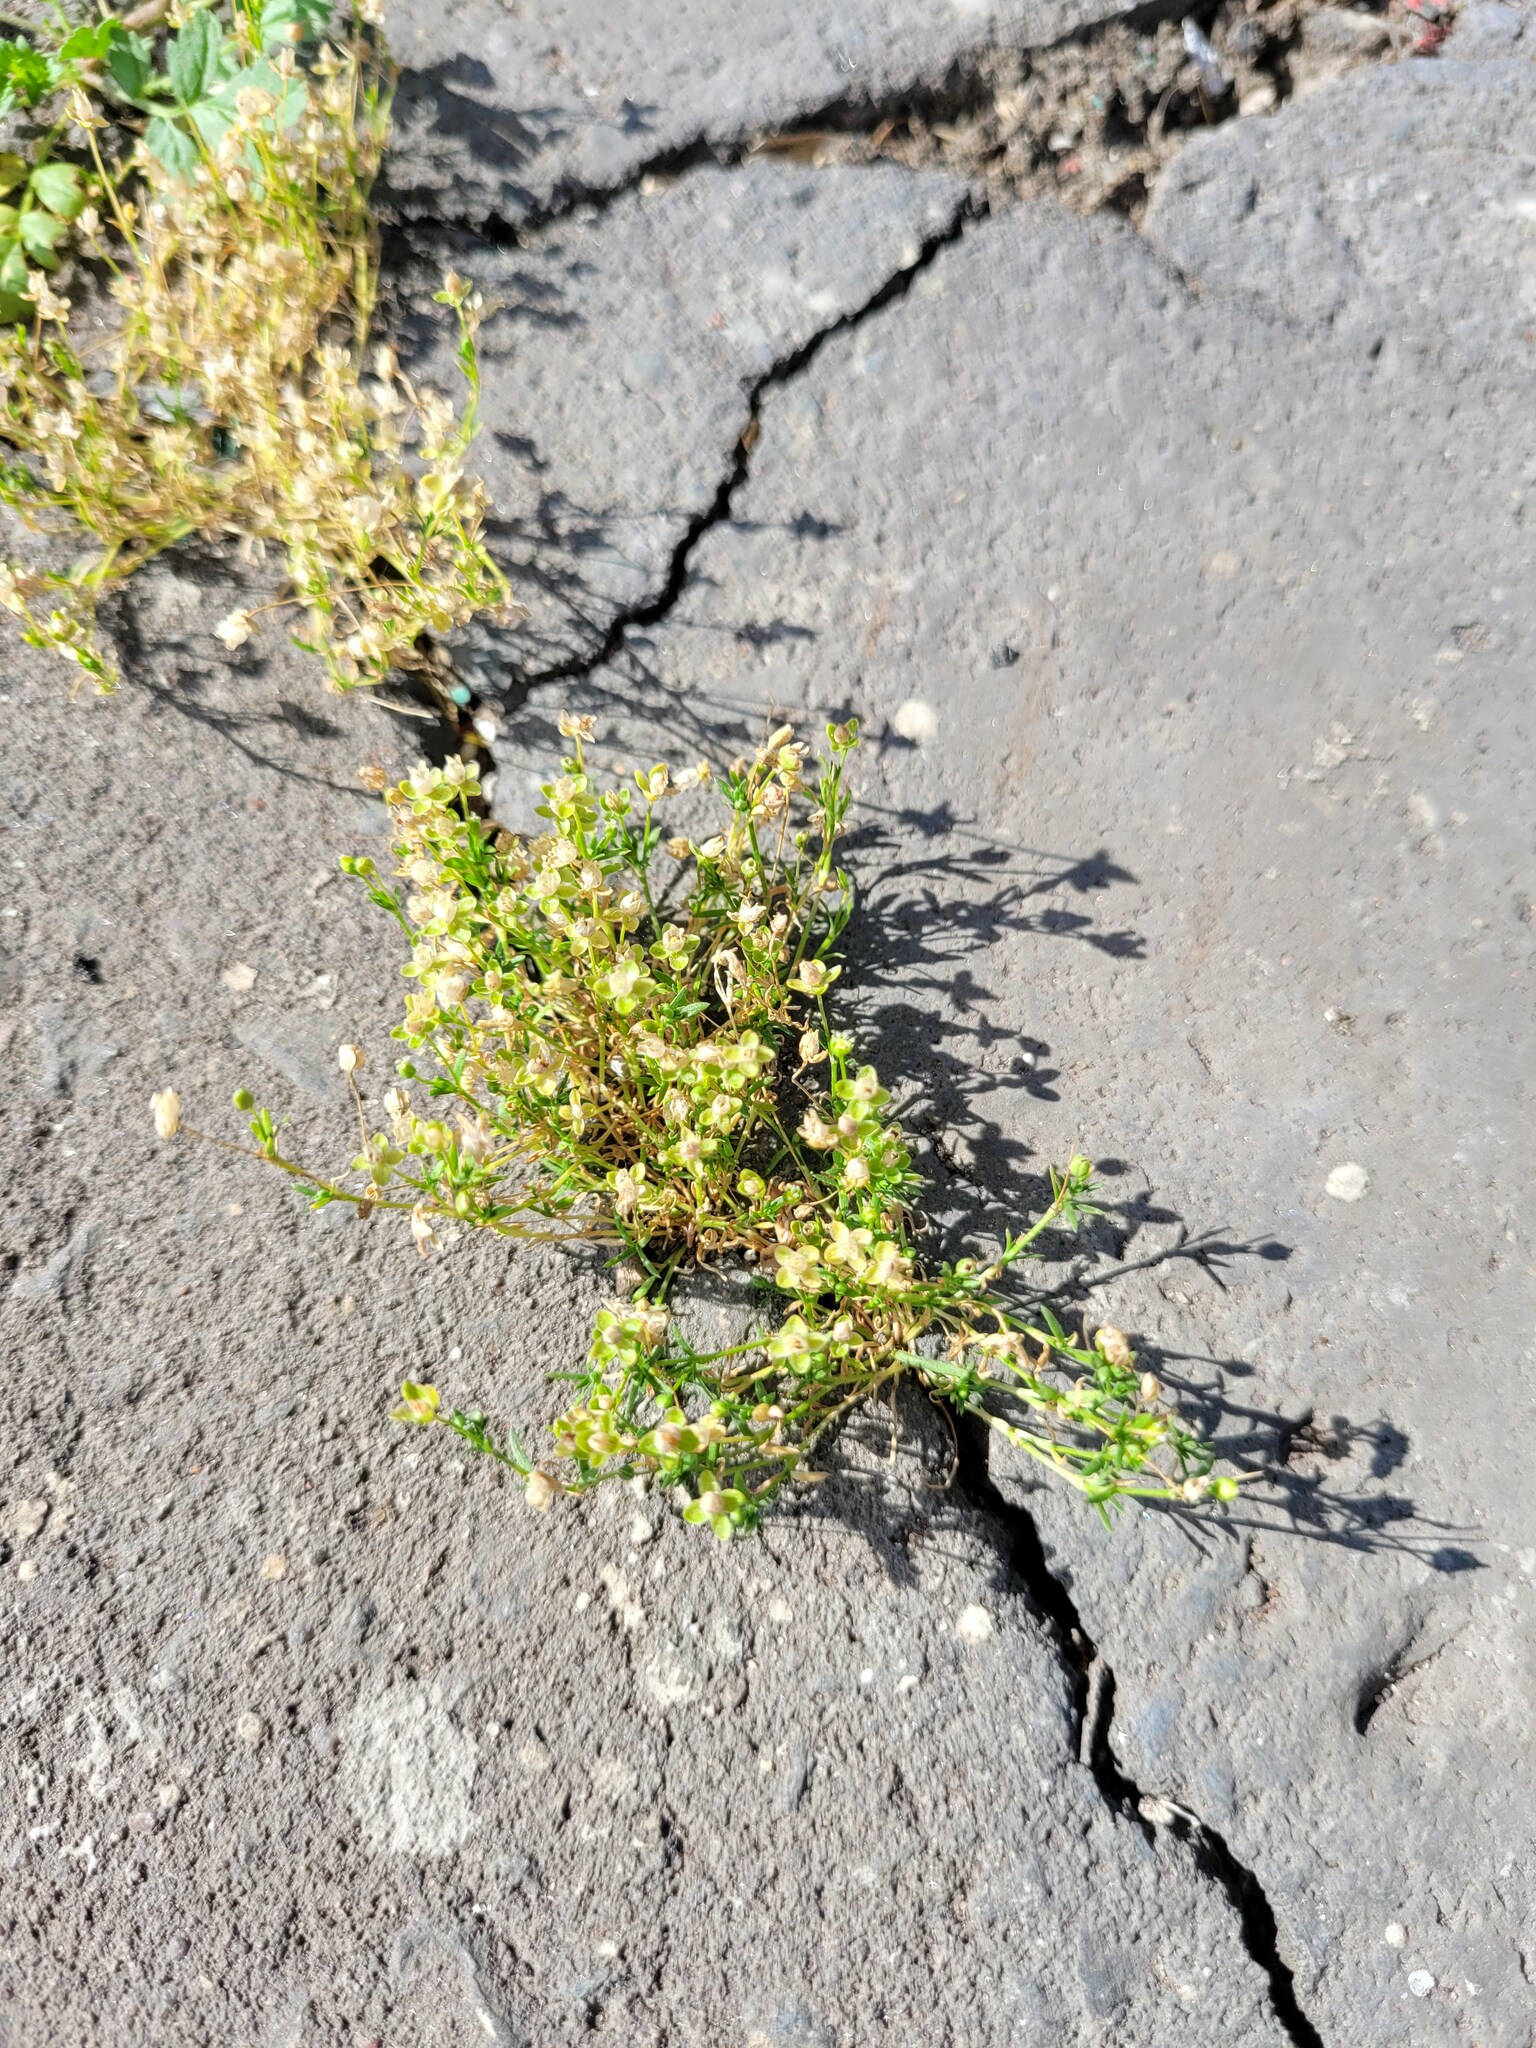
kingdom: Plantae
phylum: Tracheophyta
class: Magnoliopsida
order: Caryophyllales
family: Caryophyllaceae
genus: Sagina
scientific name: Sagina procumbens
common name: Procumbent pearlwort
